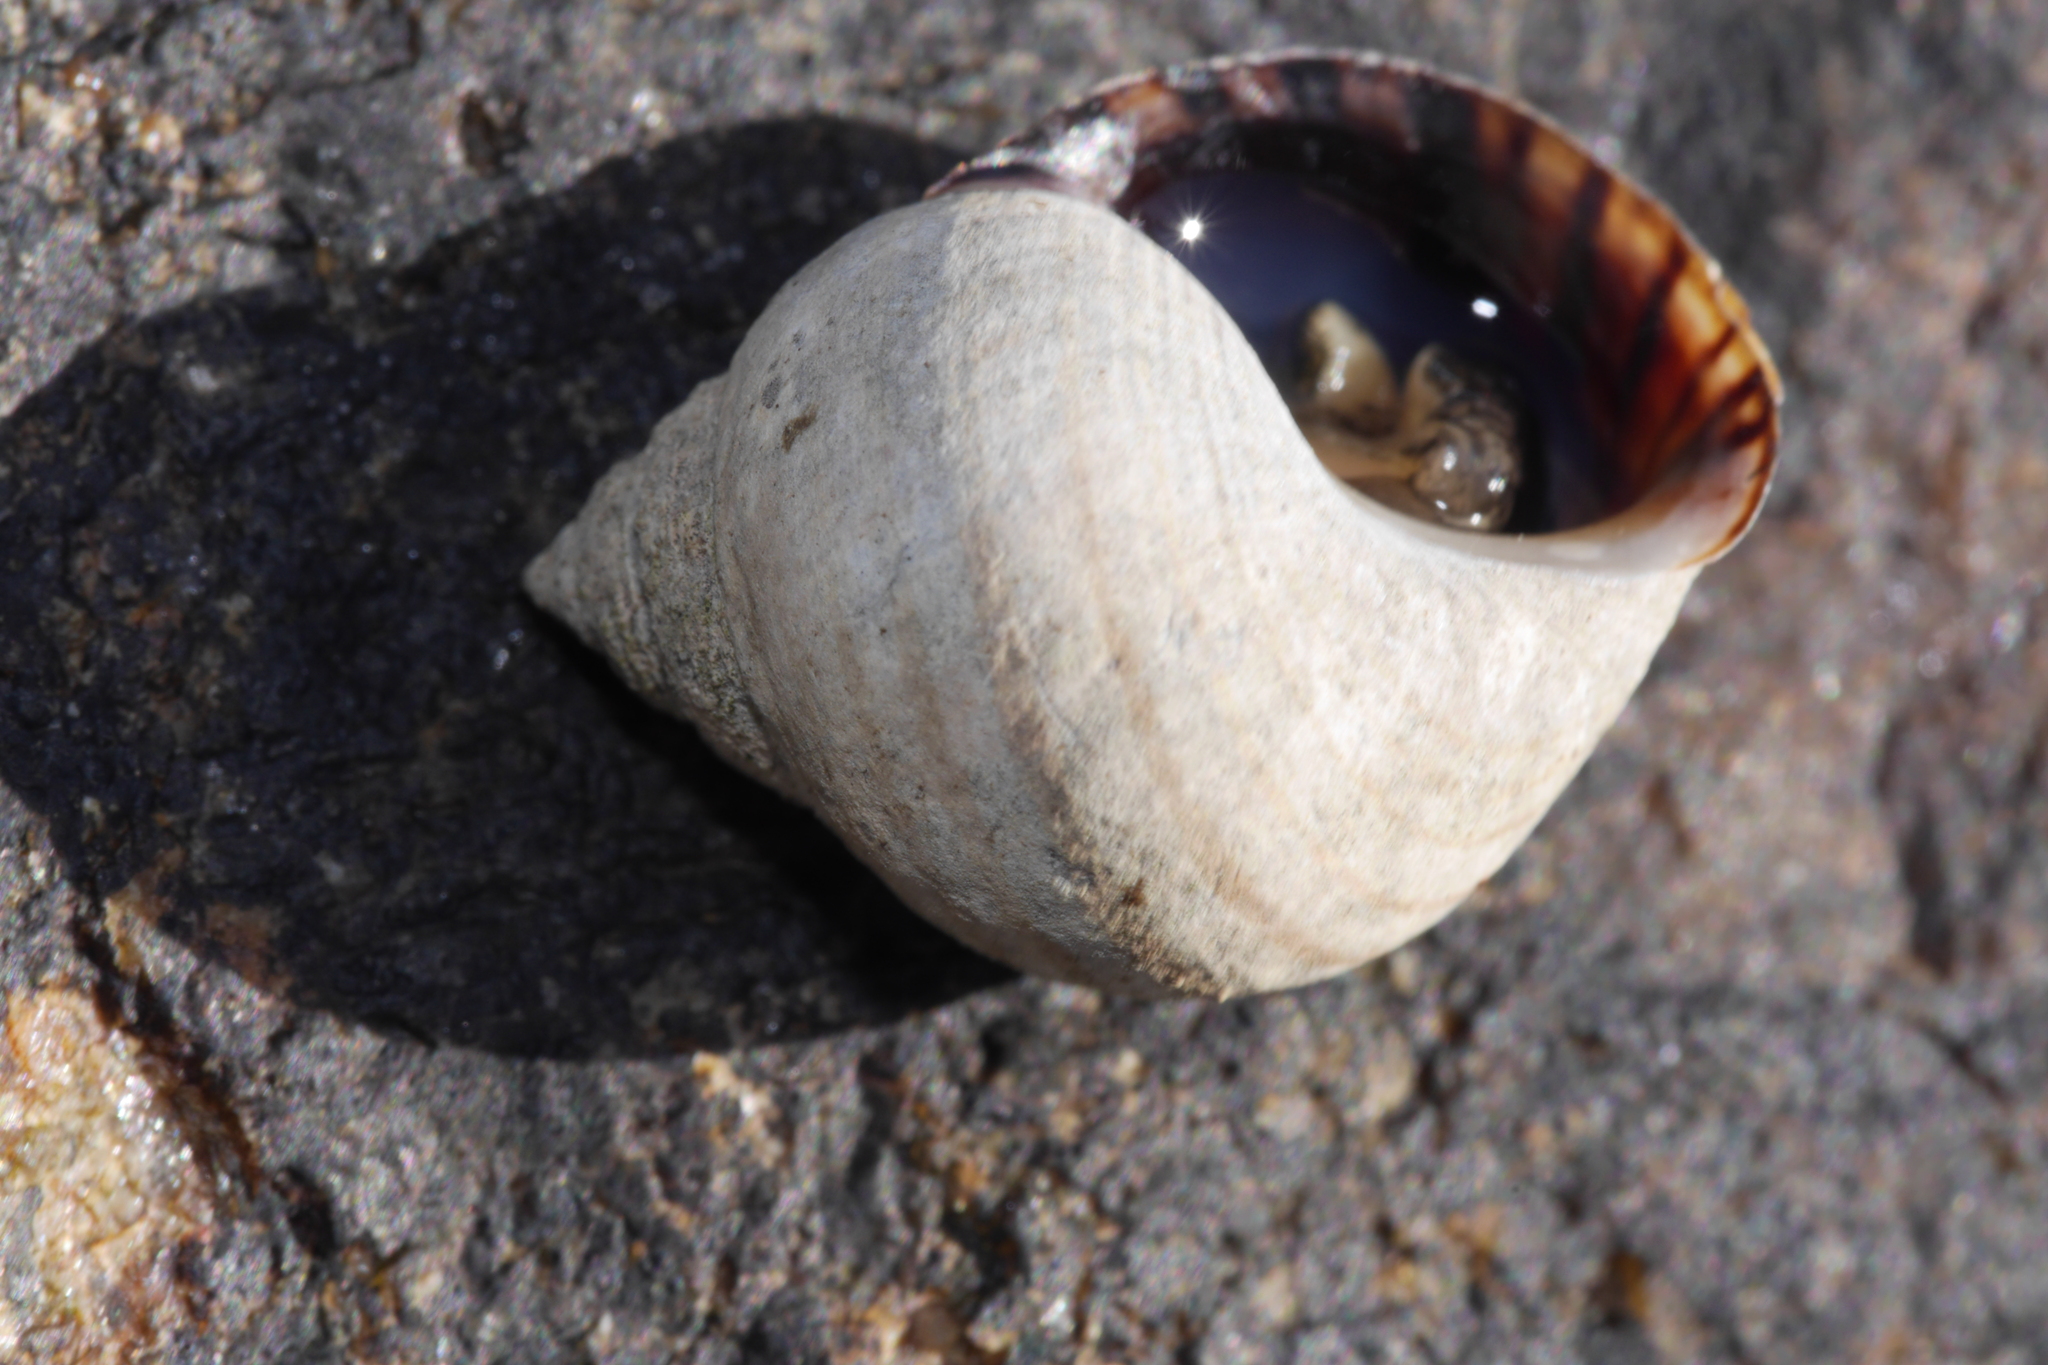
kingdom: Animalia
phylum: Mollusca
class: Gastropoda
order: Littorinimorpha
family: Littorinidae
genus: Littorina
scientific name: Littorina littorea
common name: Common periwinkle
